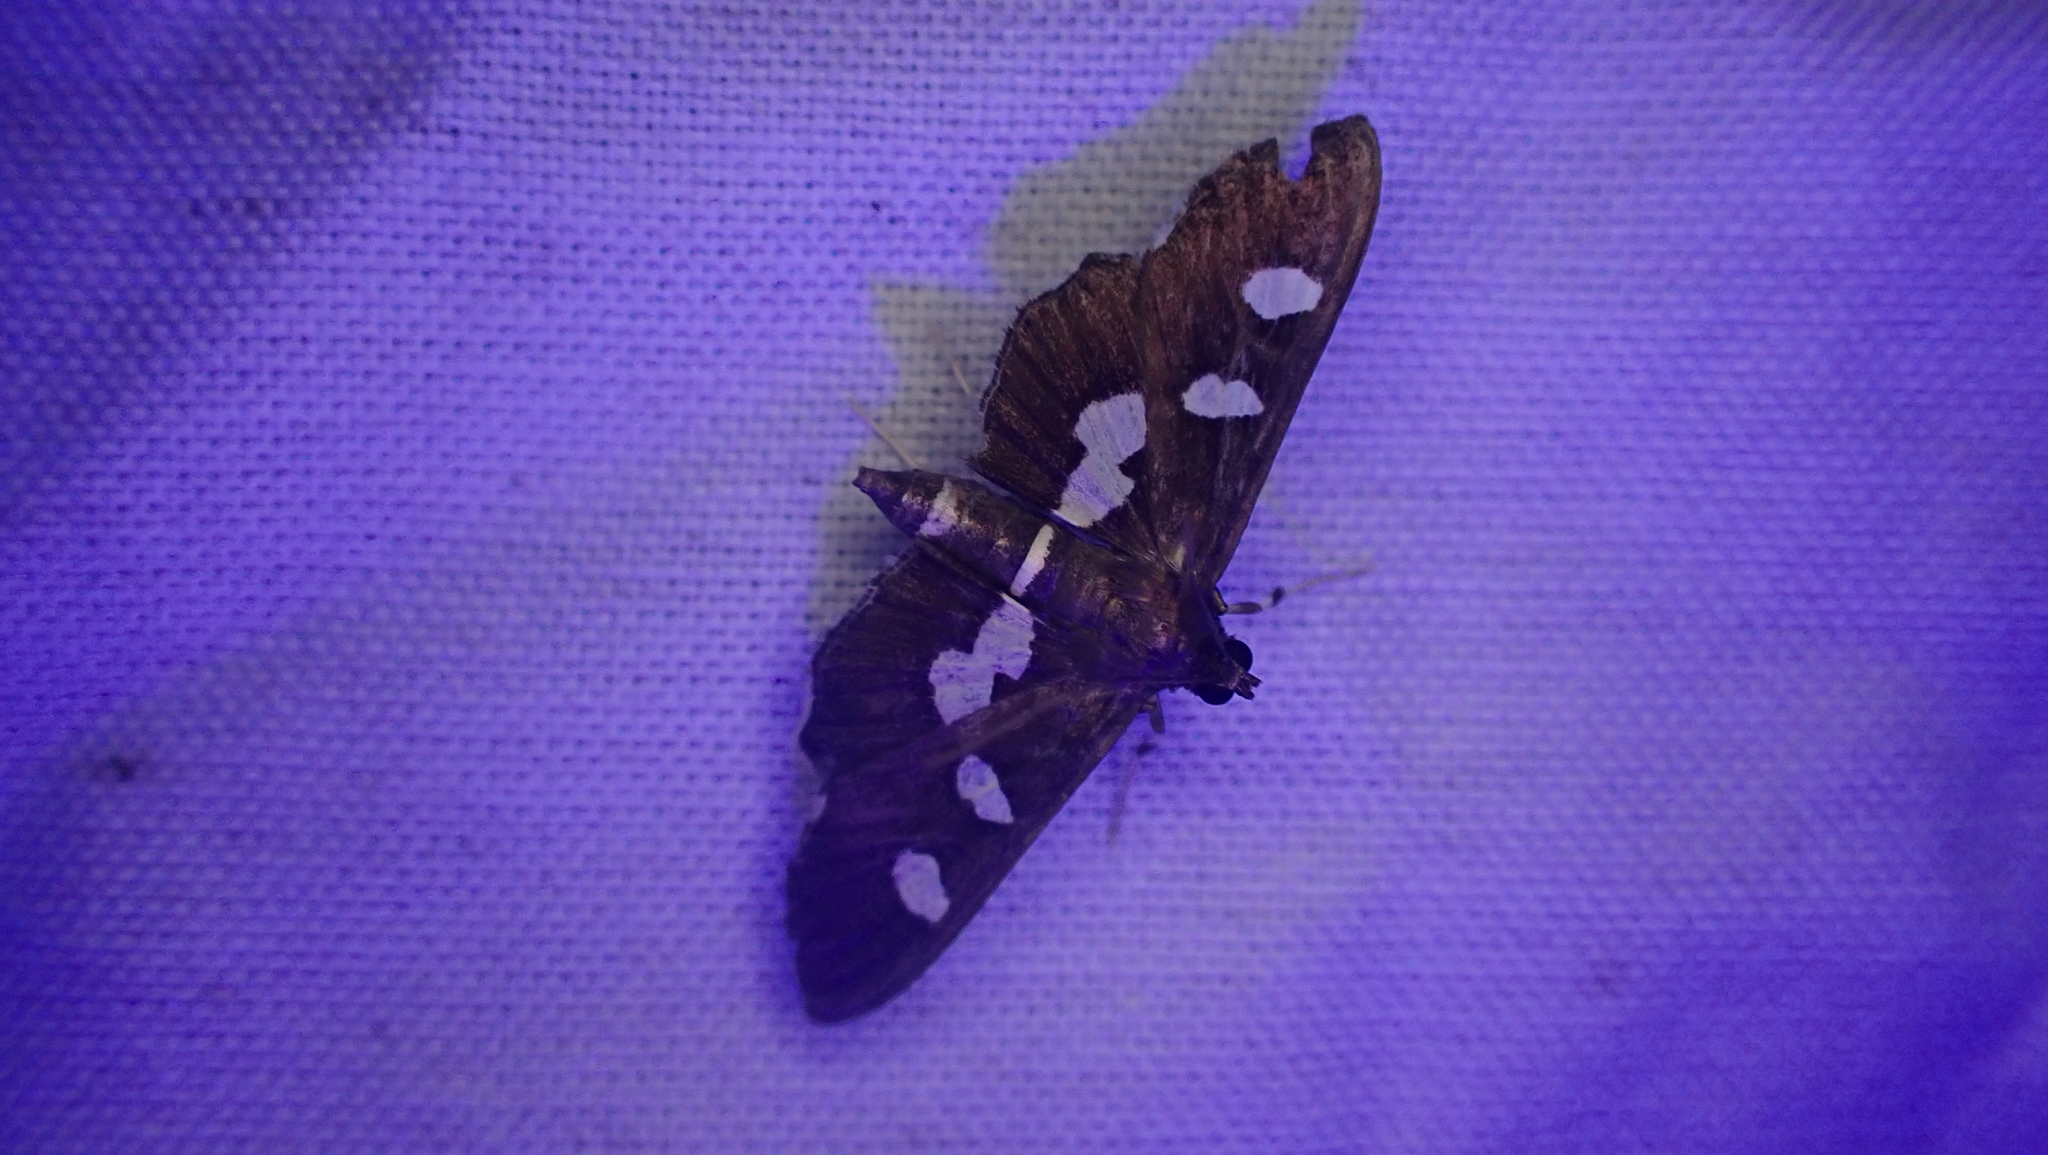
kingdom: Animalia
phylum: Arthropoda
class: Insecta
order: Lepidoptera
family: Crambidae
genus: Desmia
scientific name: Desmia
